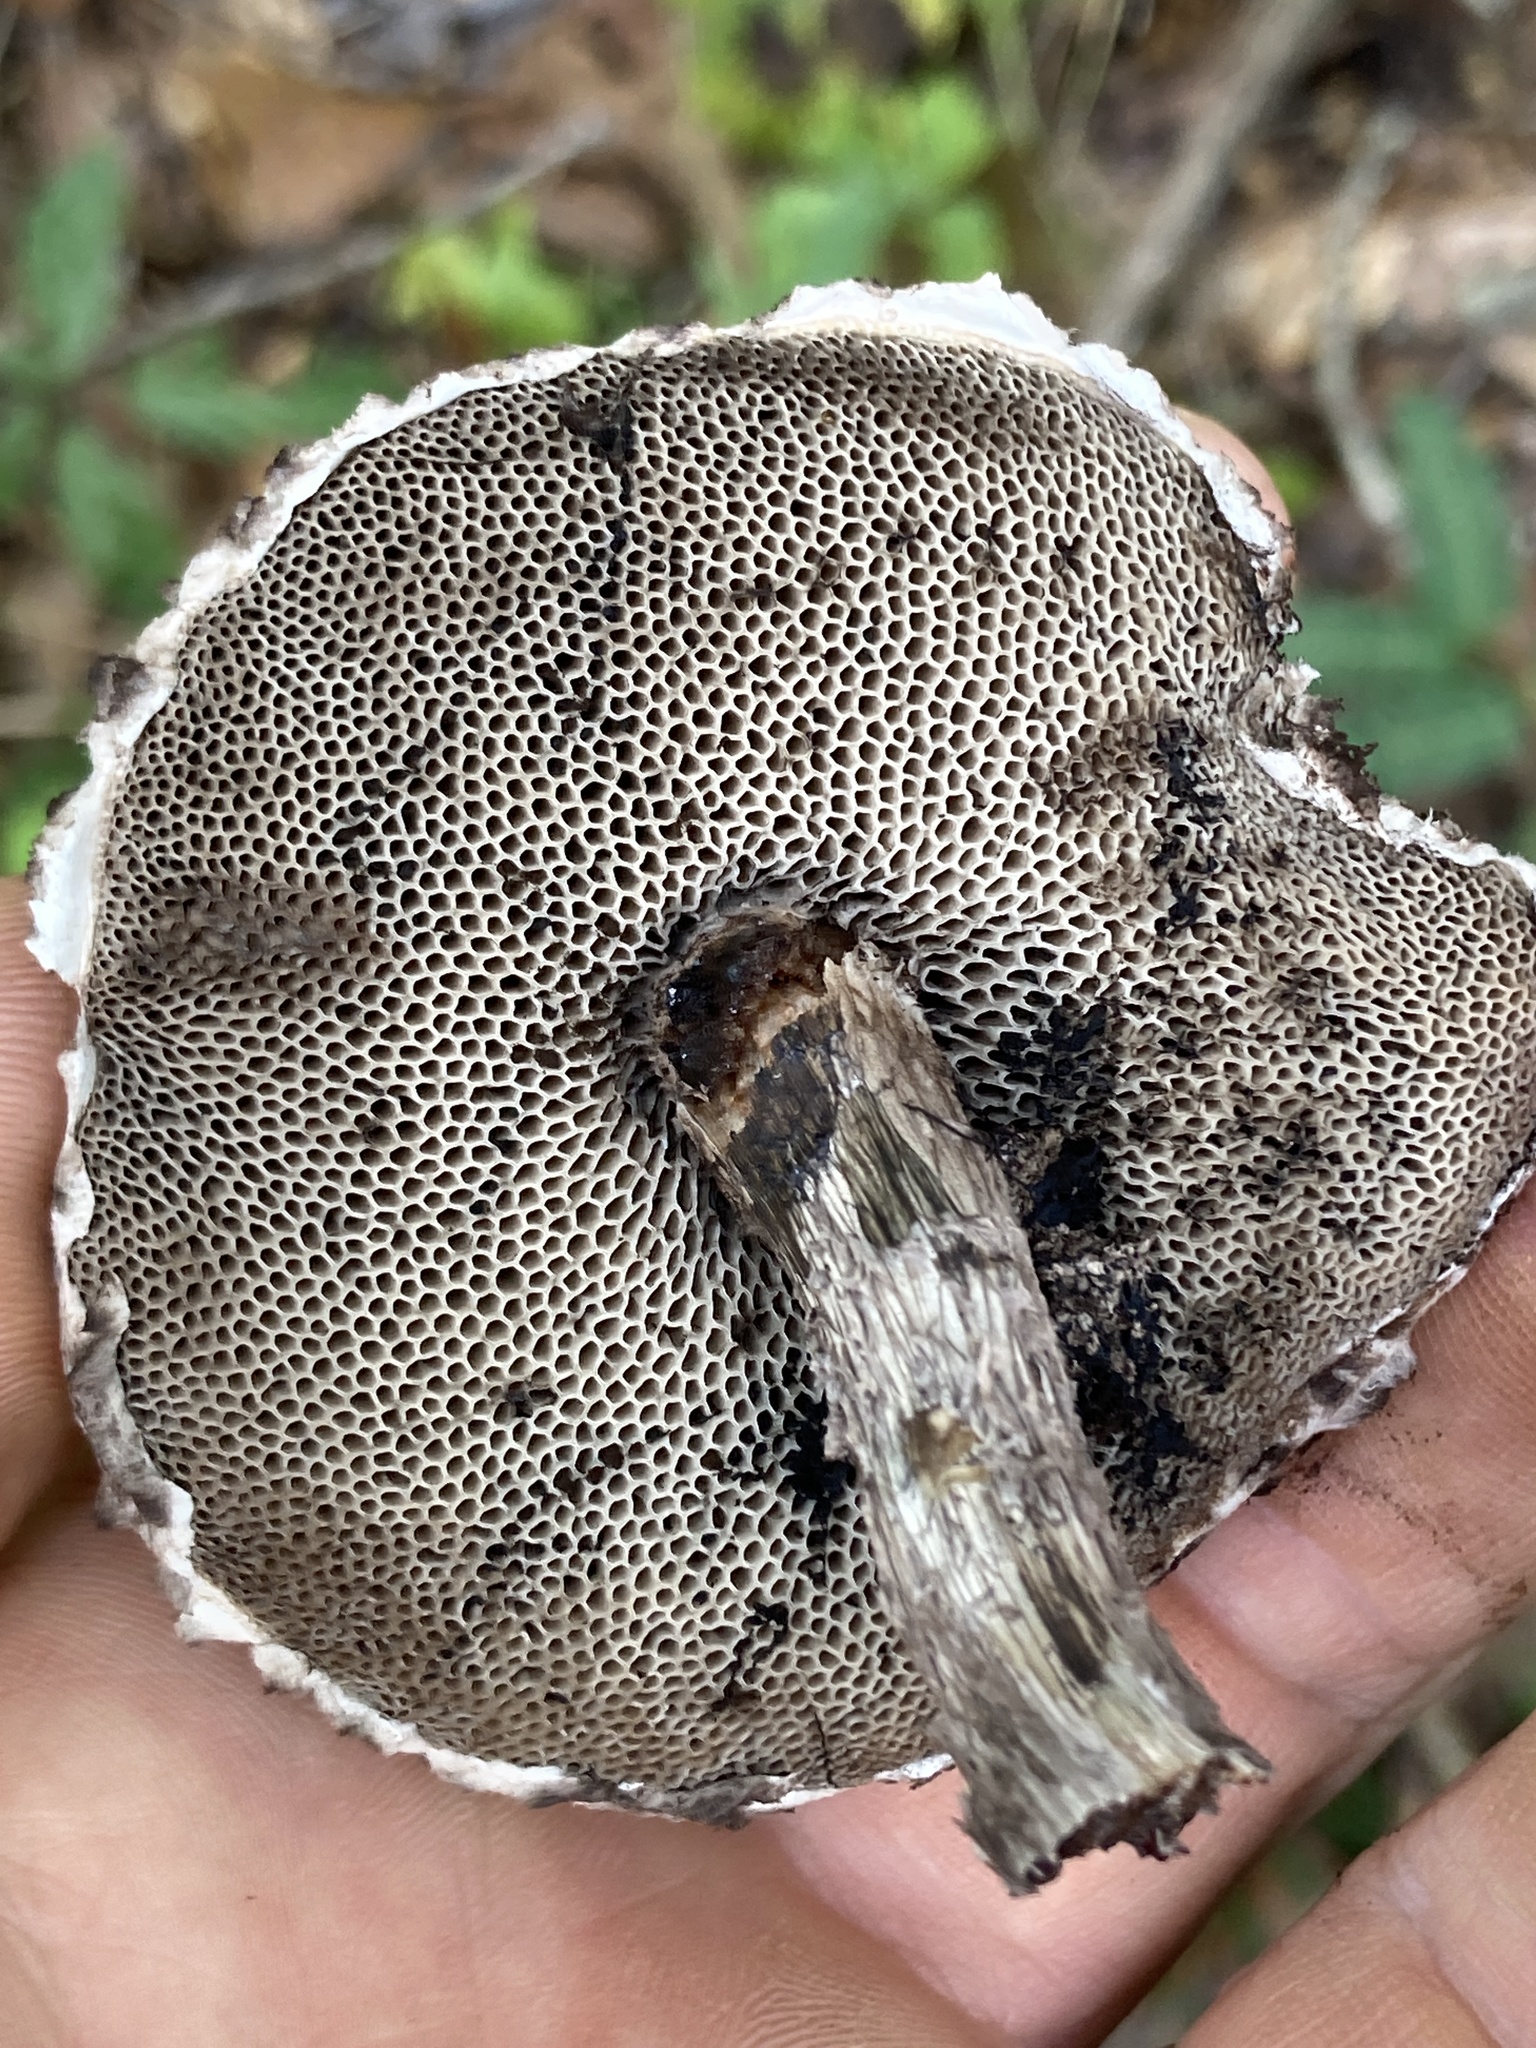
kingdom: Fungi
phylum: Basidiomycota
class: Agaricomycetes
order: Boletales
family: Boletaceae
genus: Strobilomyces
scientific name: Strobilomyces strobilaceus
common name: Old man of the woods
